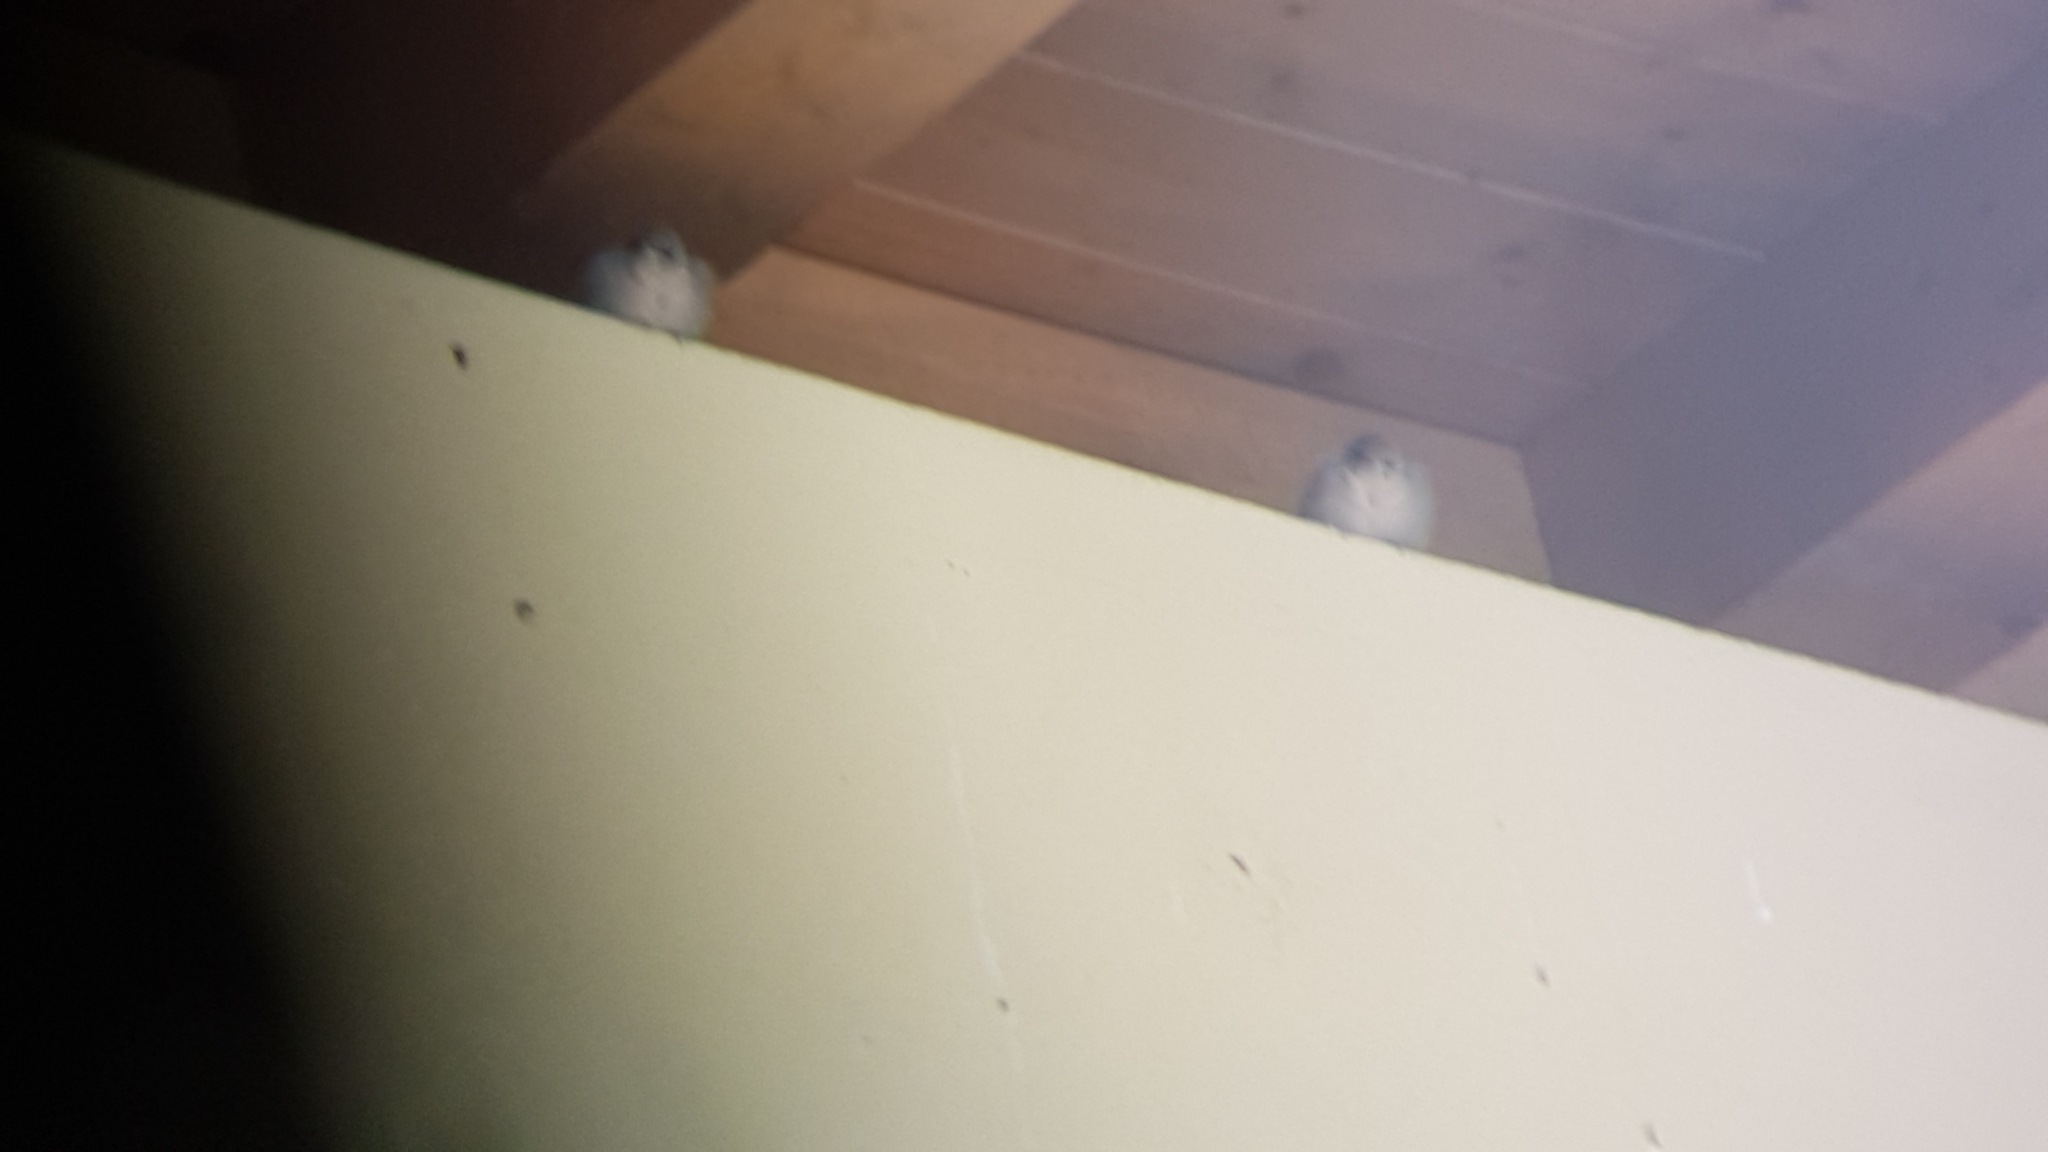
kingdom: Animalia
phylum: Chordata
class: Aves
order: Passeriformes
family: Hirundinidae
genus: Ptyonoprogne
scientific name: Ptyonoprogne rupestris
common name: Eurasian crag martin
